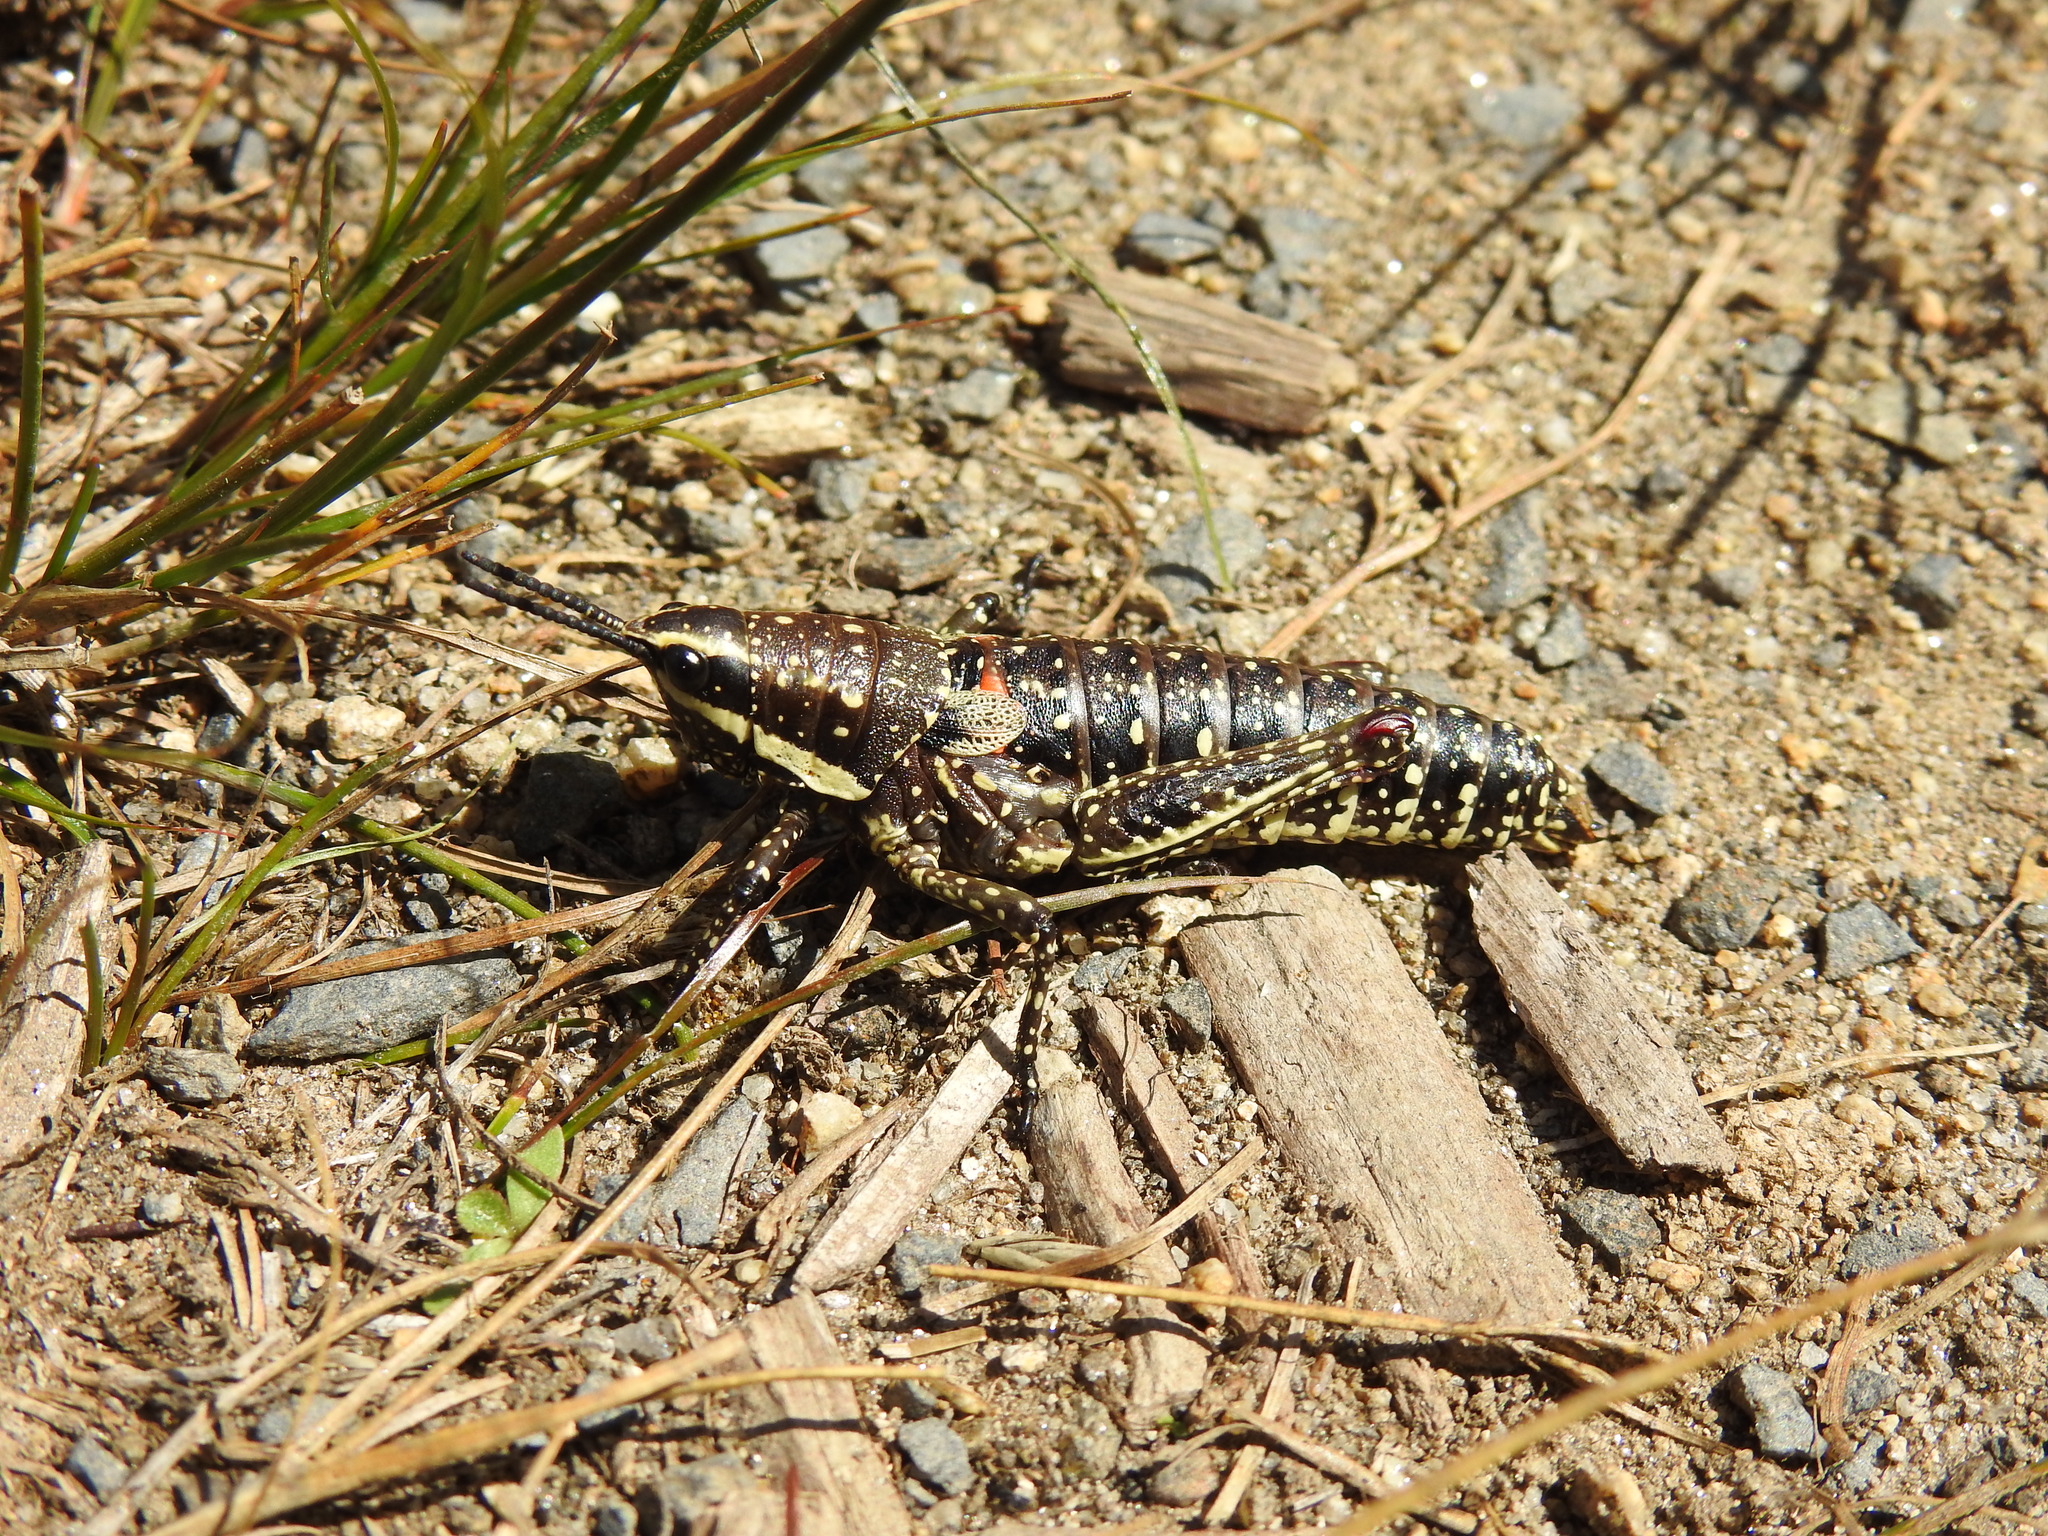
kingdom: Animalia
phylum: Arthropoda
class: Insecta
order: Orthoptera
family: Pyrgomorphidae
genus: Monistria
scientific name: Monistria concinna
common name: Southern pyrgomorph
